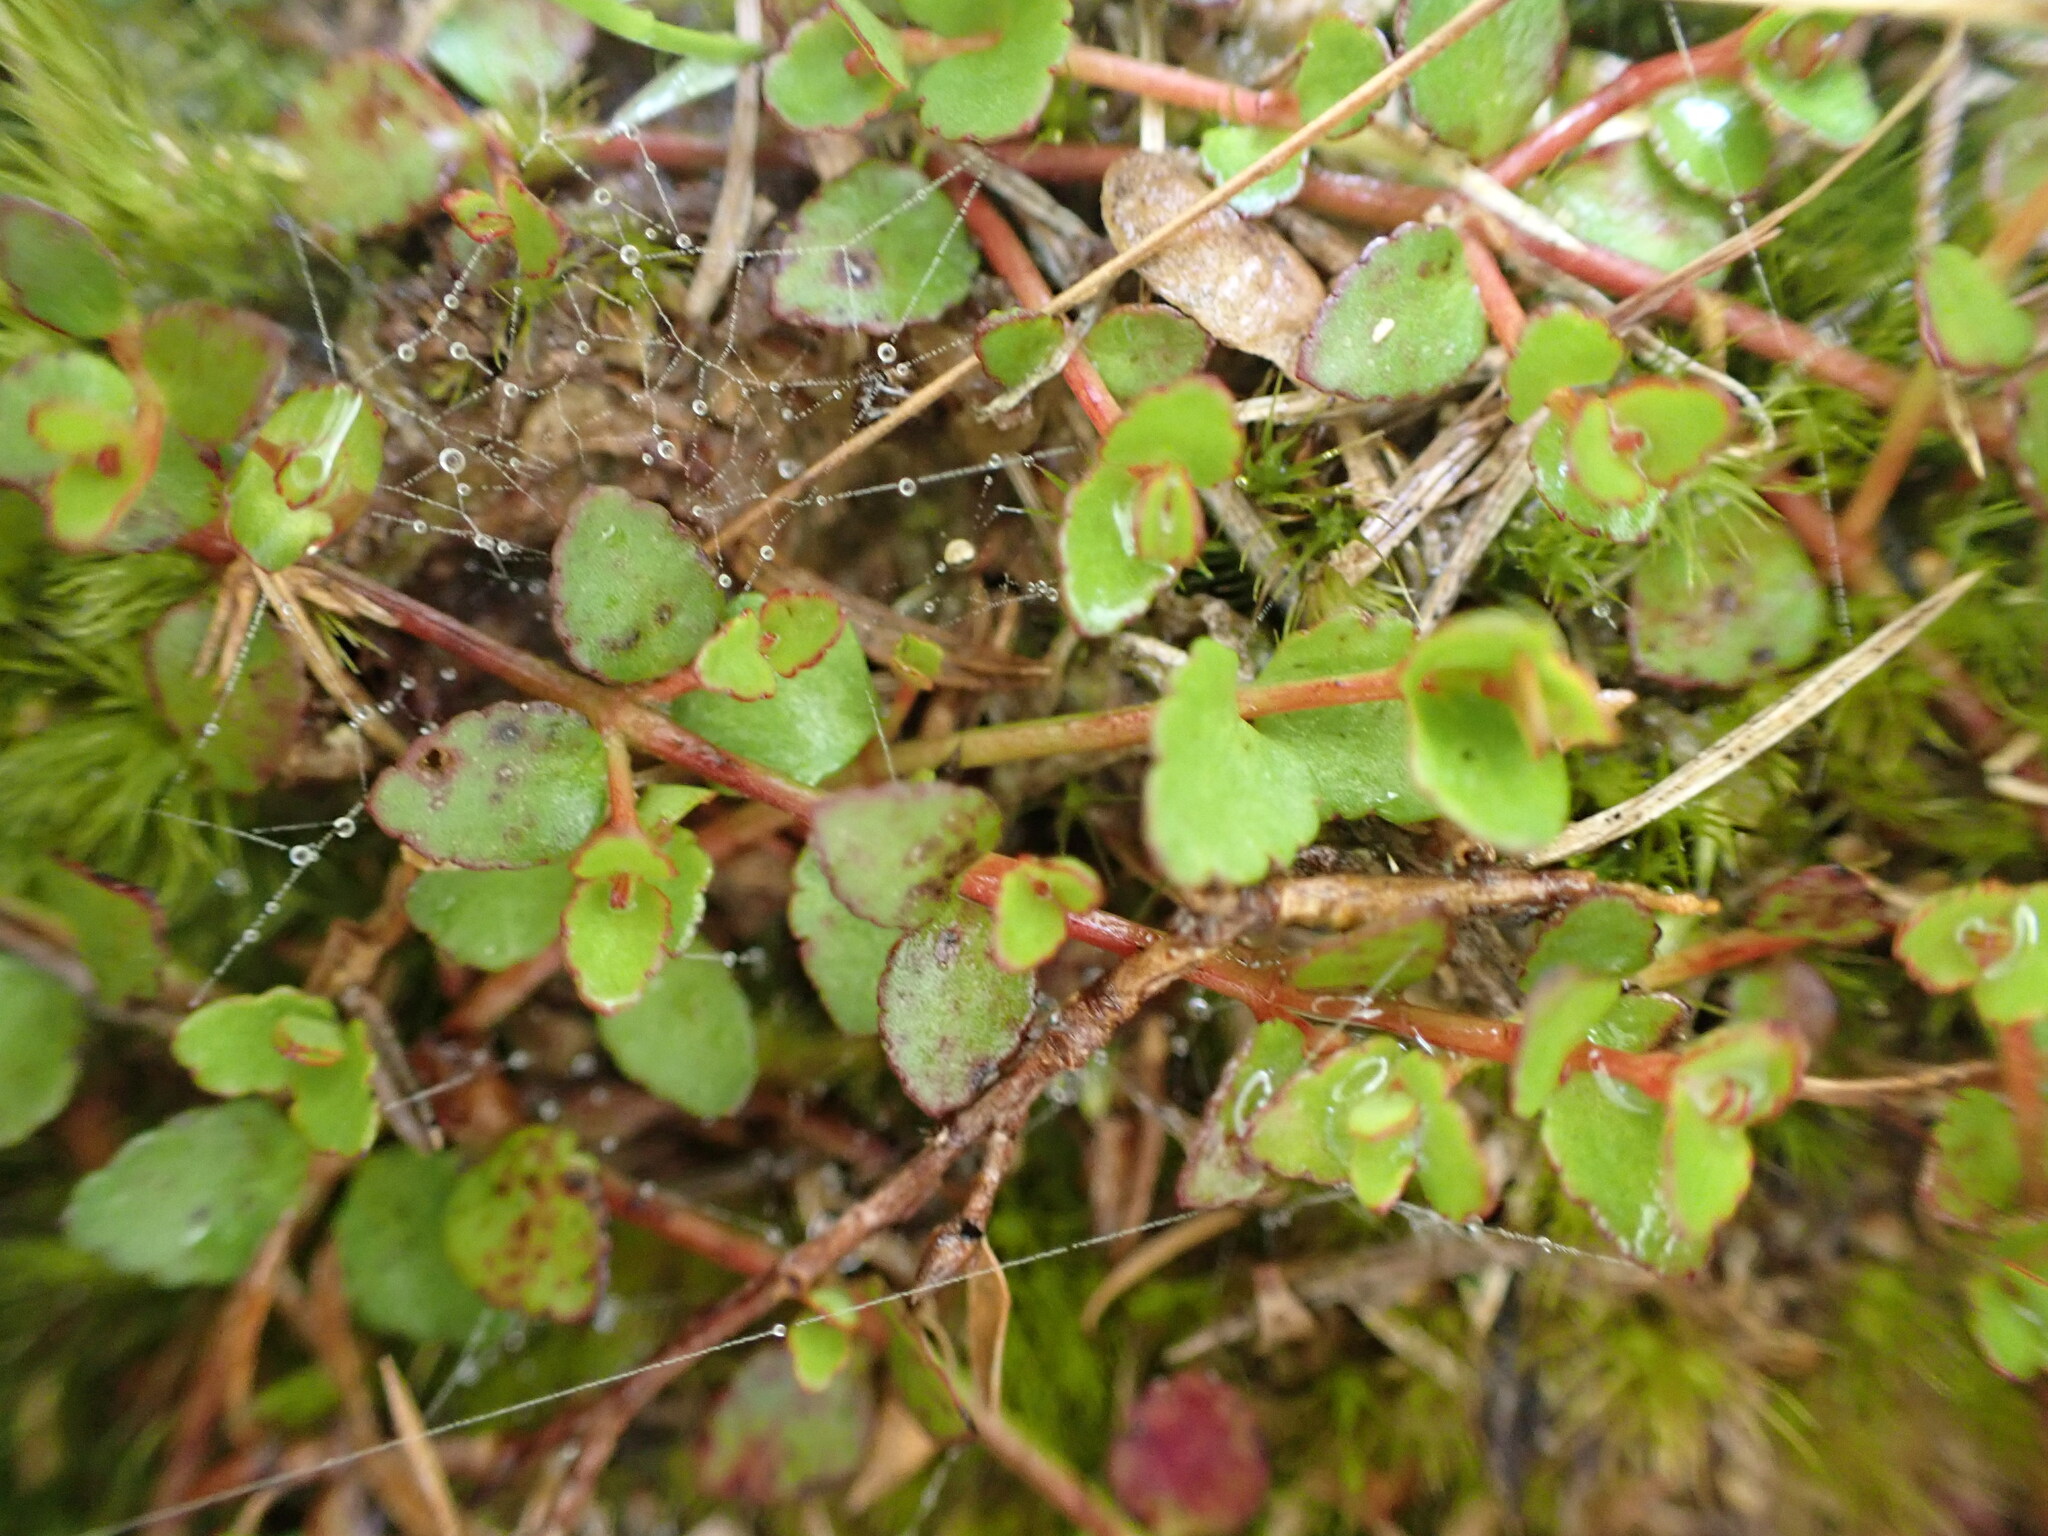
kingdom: Plantae
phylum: Tracheophyta
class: Magnoliopsida
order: Saxifragales
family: Haloragaceae
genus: Gonocarpus
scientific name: Gonocarpus micranthus
